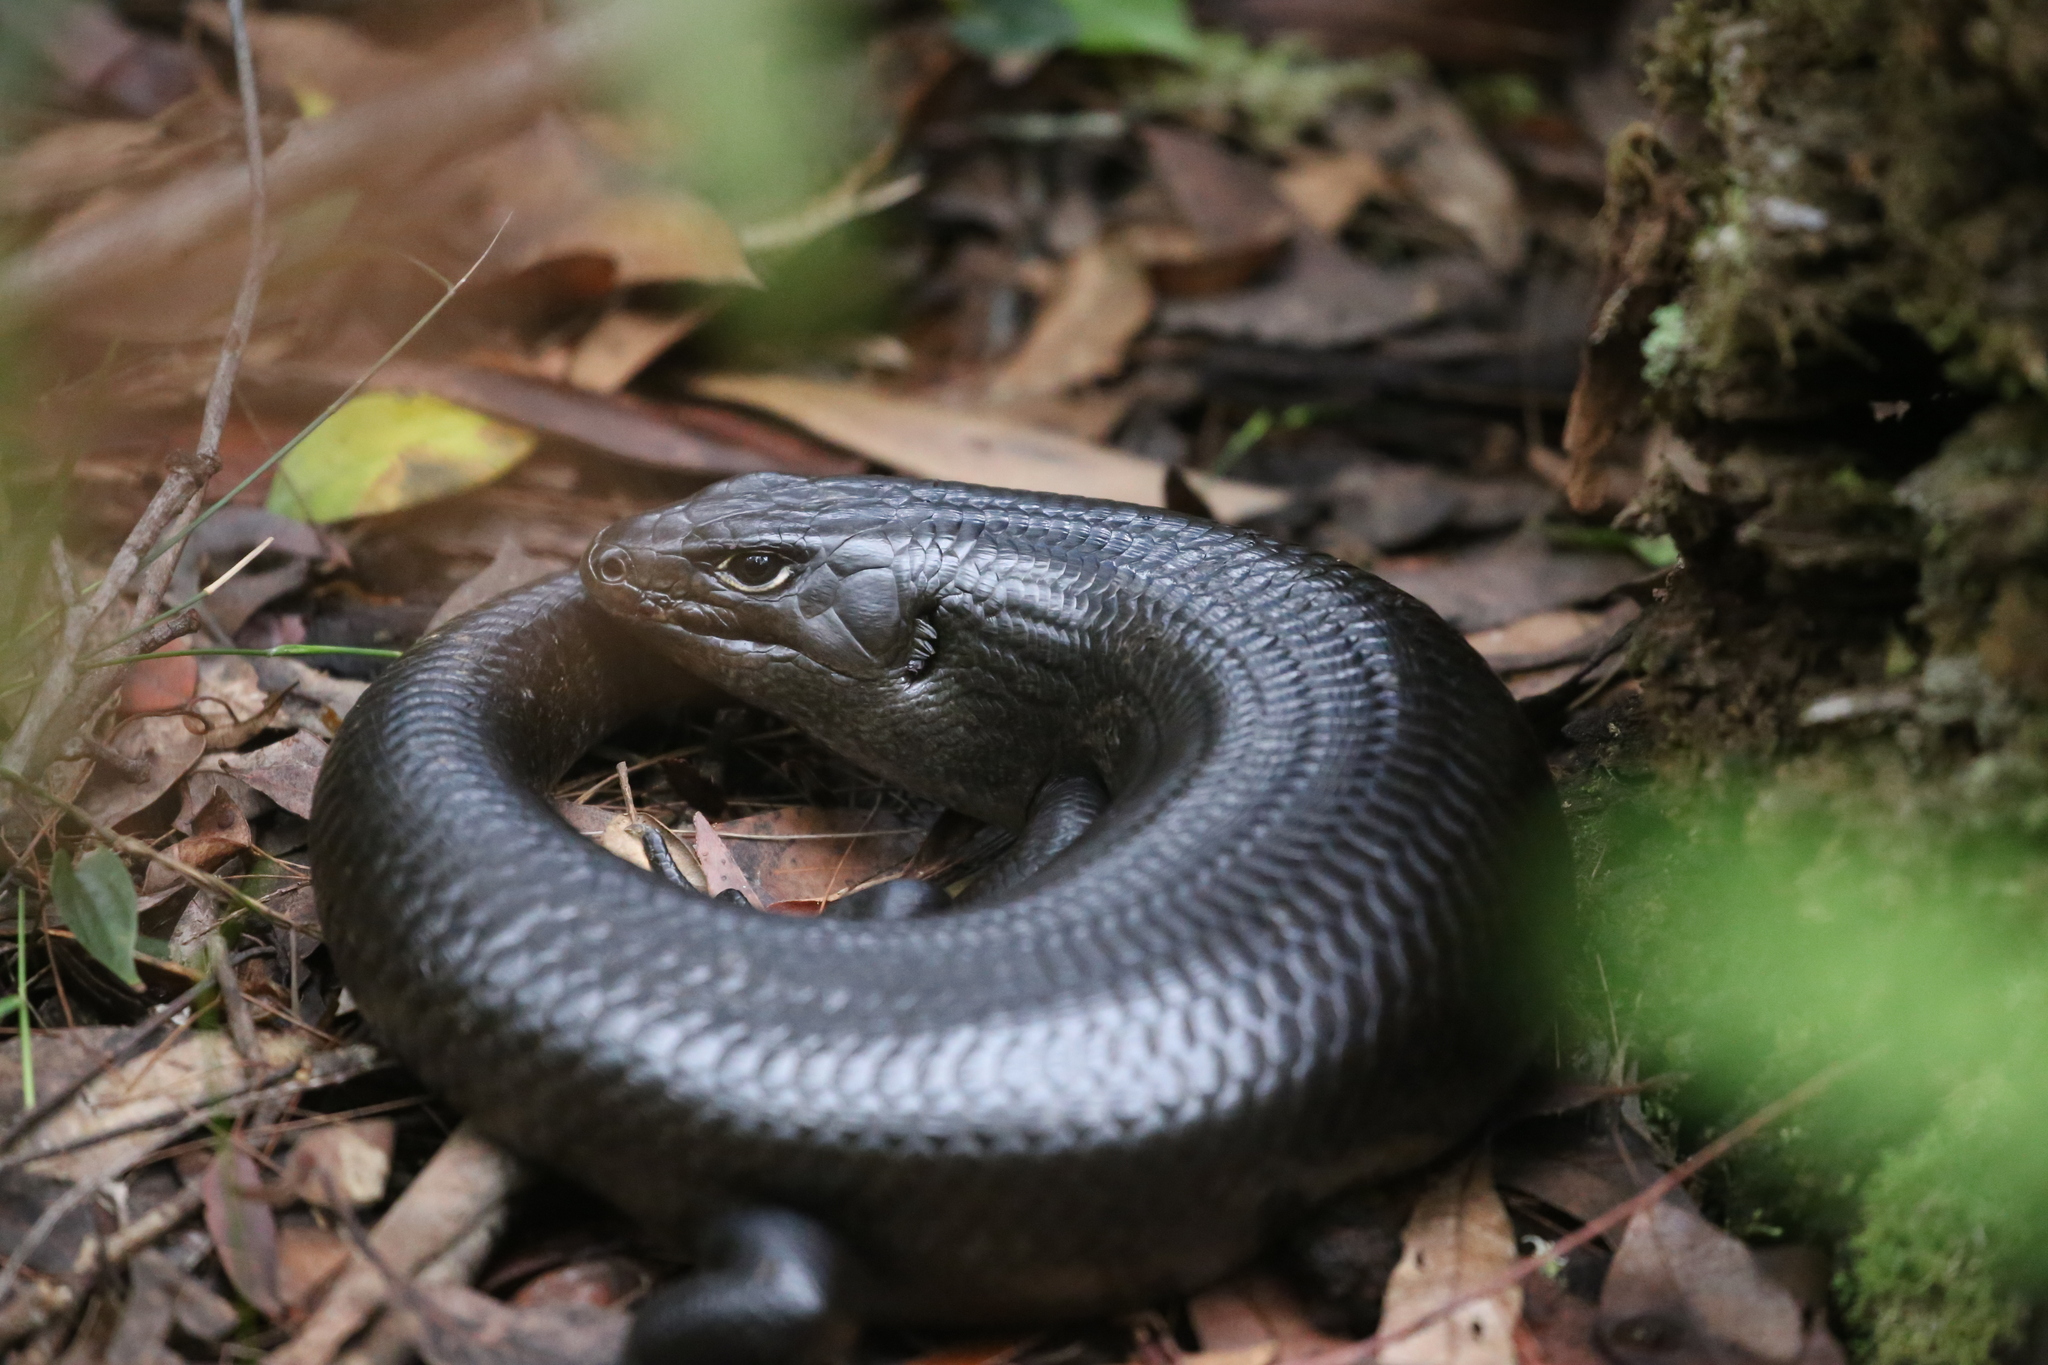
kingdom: Animalia
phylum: Chordata
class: Squamata
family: Scincidae
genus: Bellatorias
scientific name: Bellatorias major
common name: Land mullet
